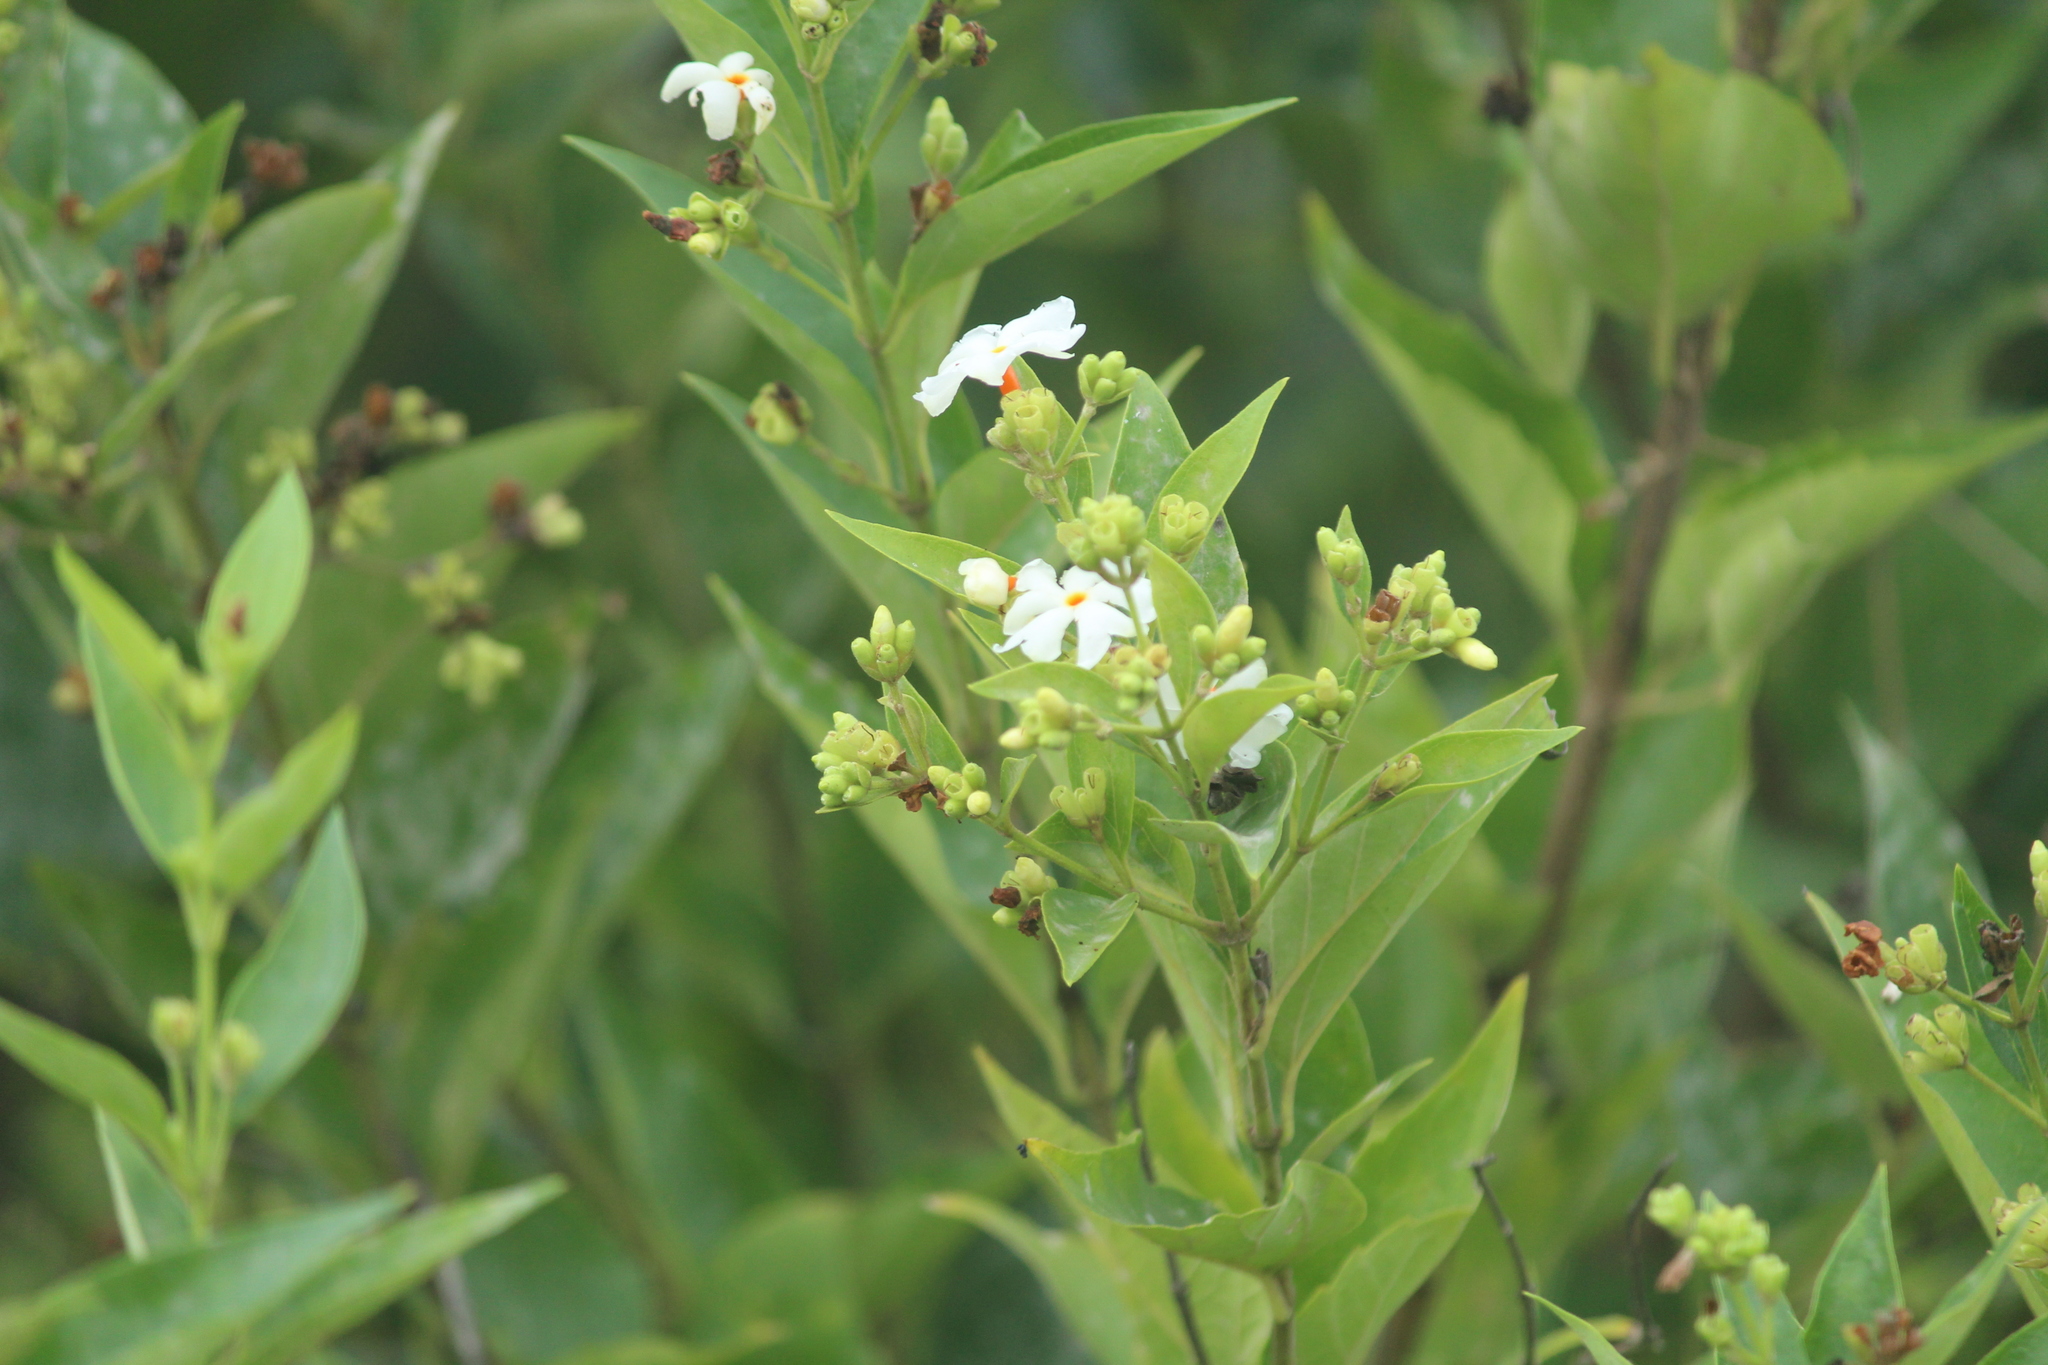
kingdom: Plantae
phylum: Tracheophyta
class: Magnoliopsida
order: Lamiales
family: Oleaceae
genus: Nyctanthes
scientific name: Nyctanthes arbor-tristis
